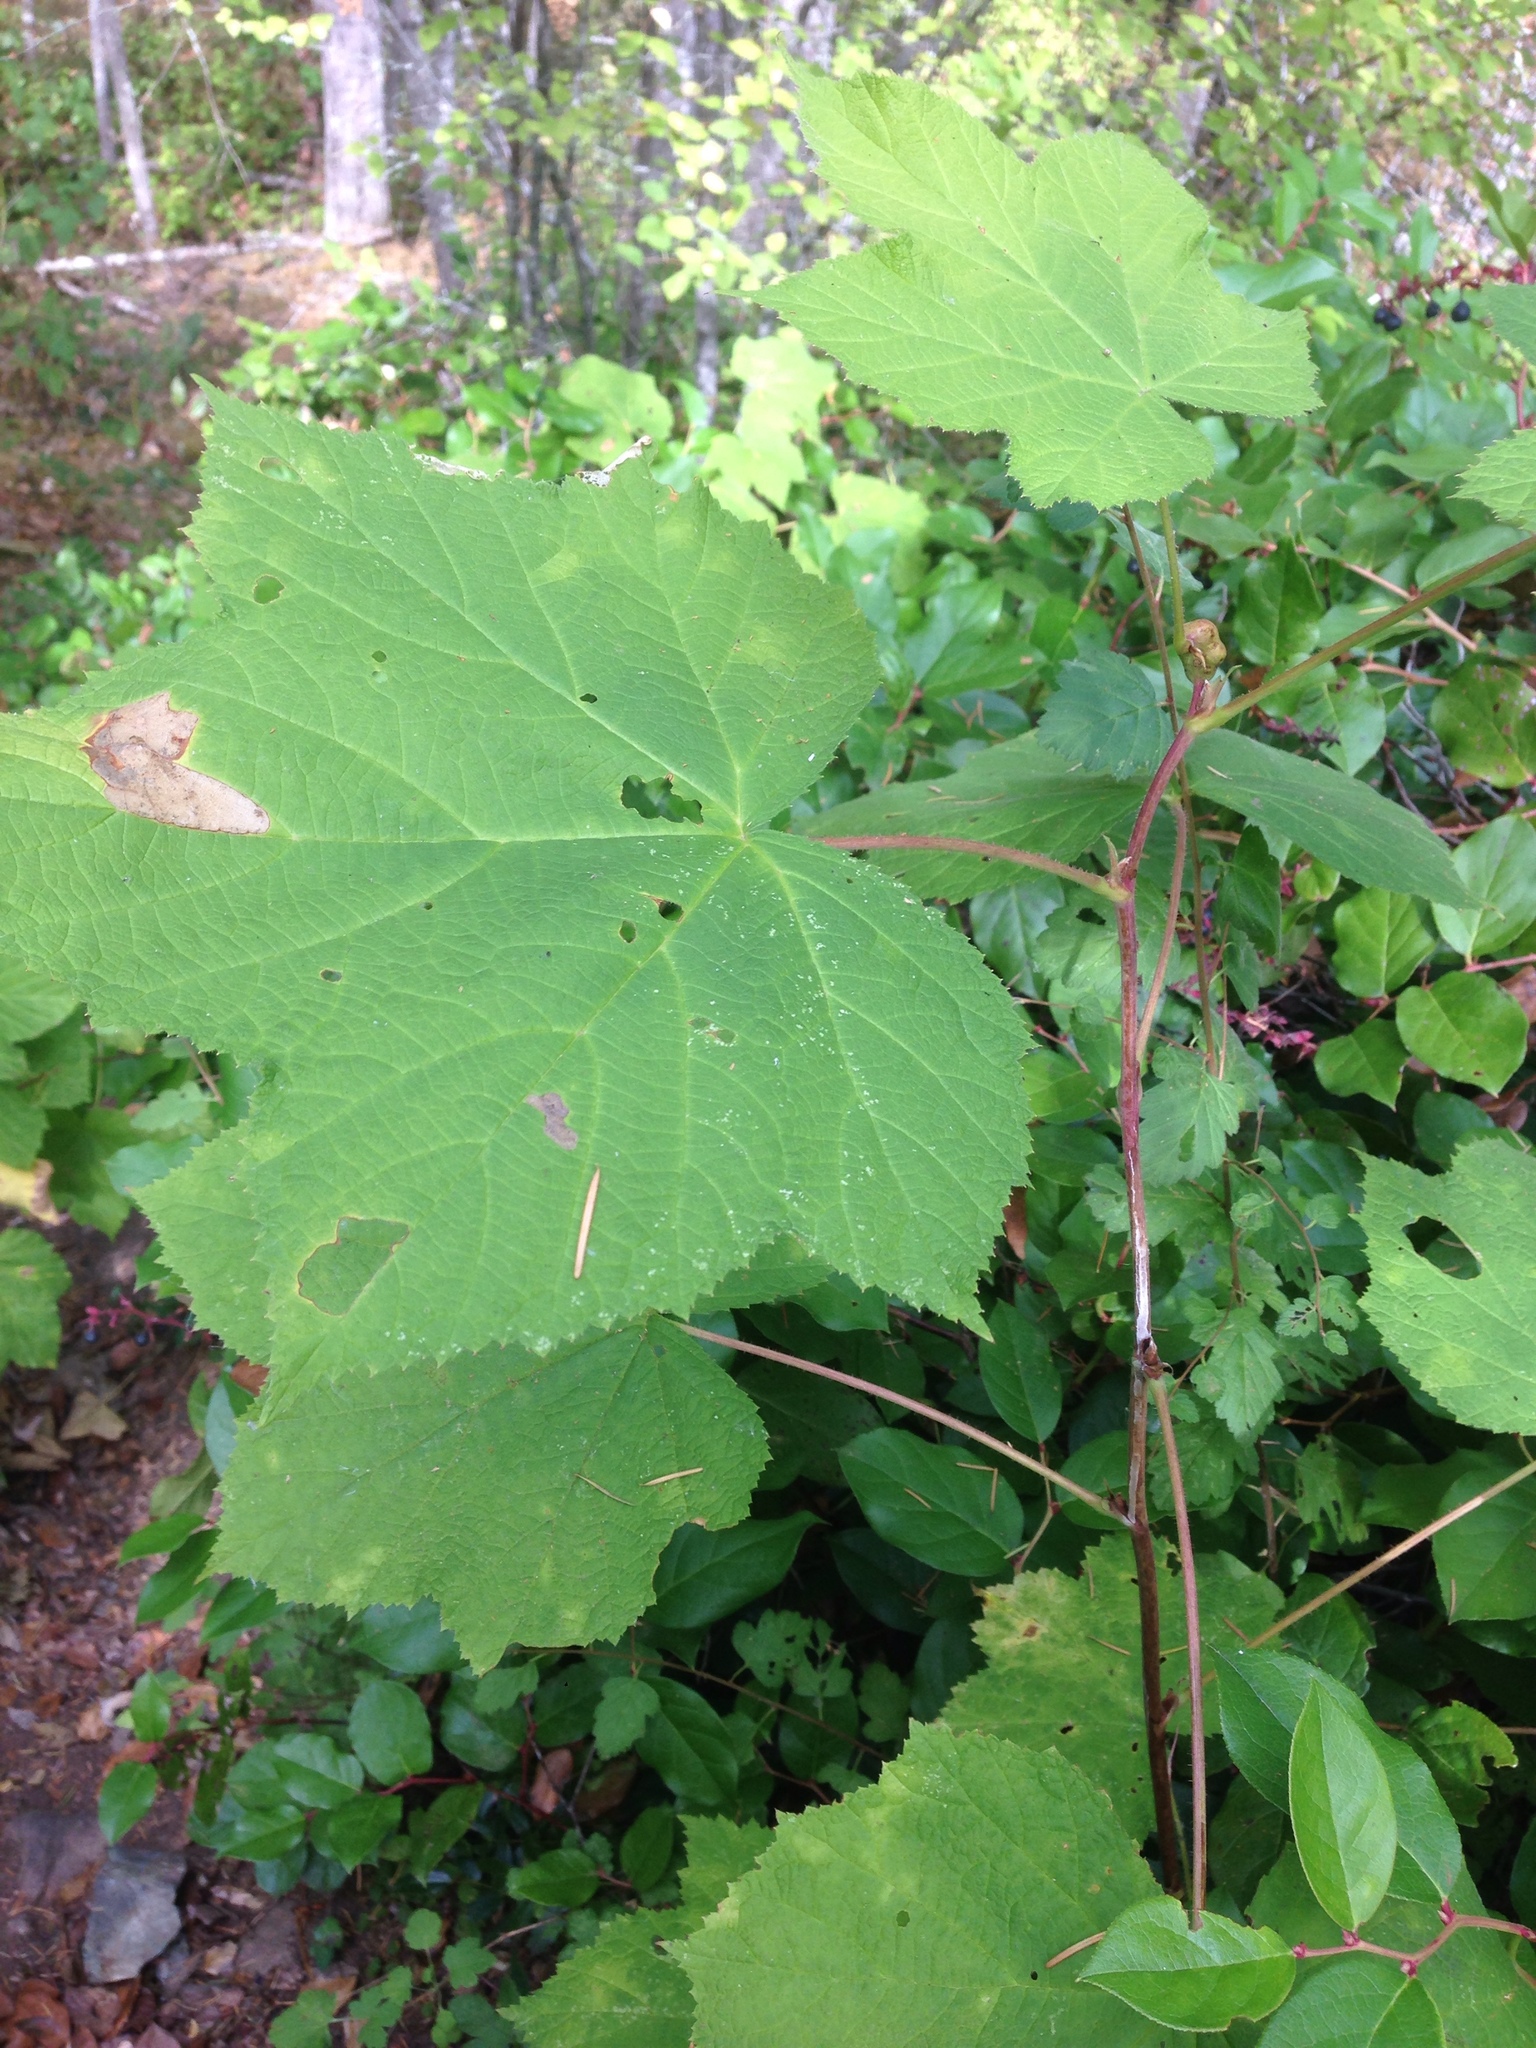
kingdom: Plantae
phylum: Tracheophyta
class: Magnoliopsida
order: Rosales
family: Rosaceae
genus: Rubus
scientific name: Rubus parviflorus
